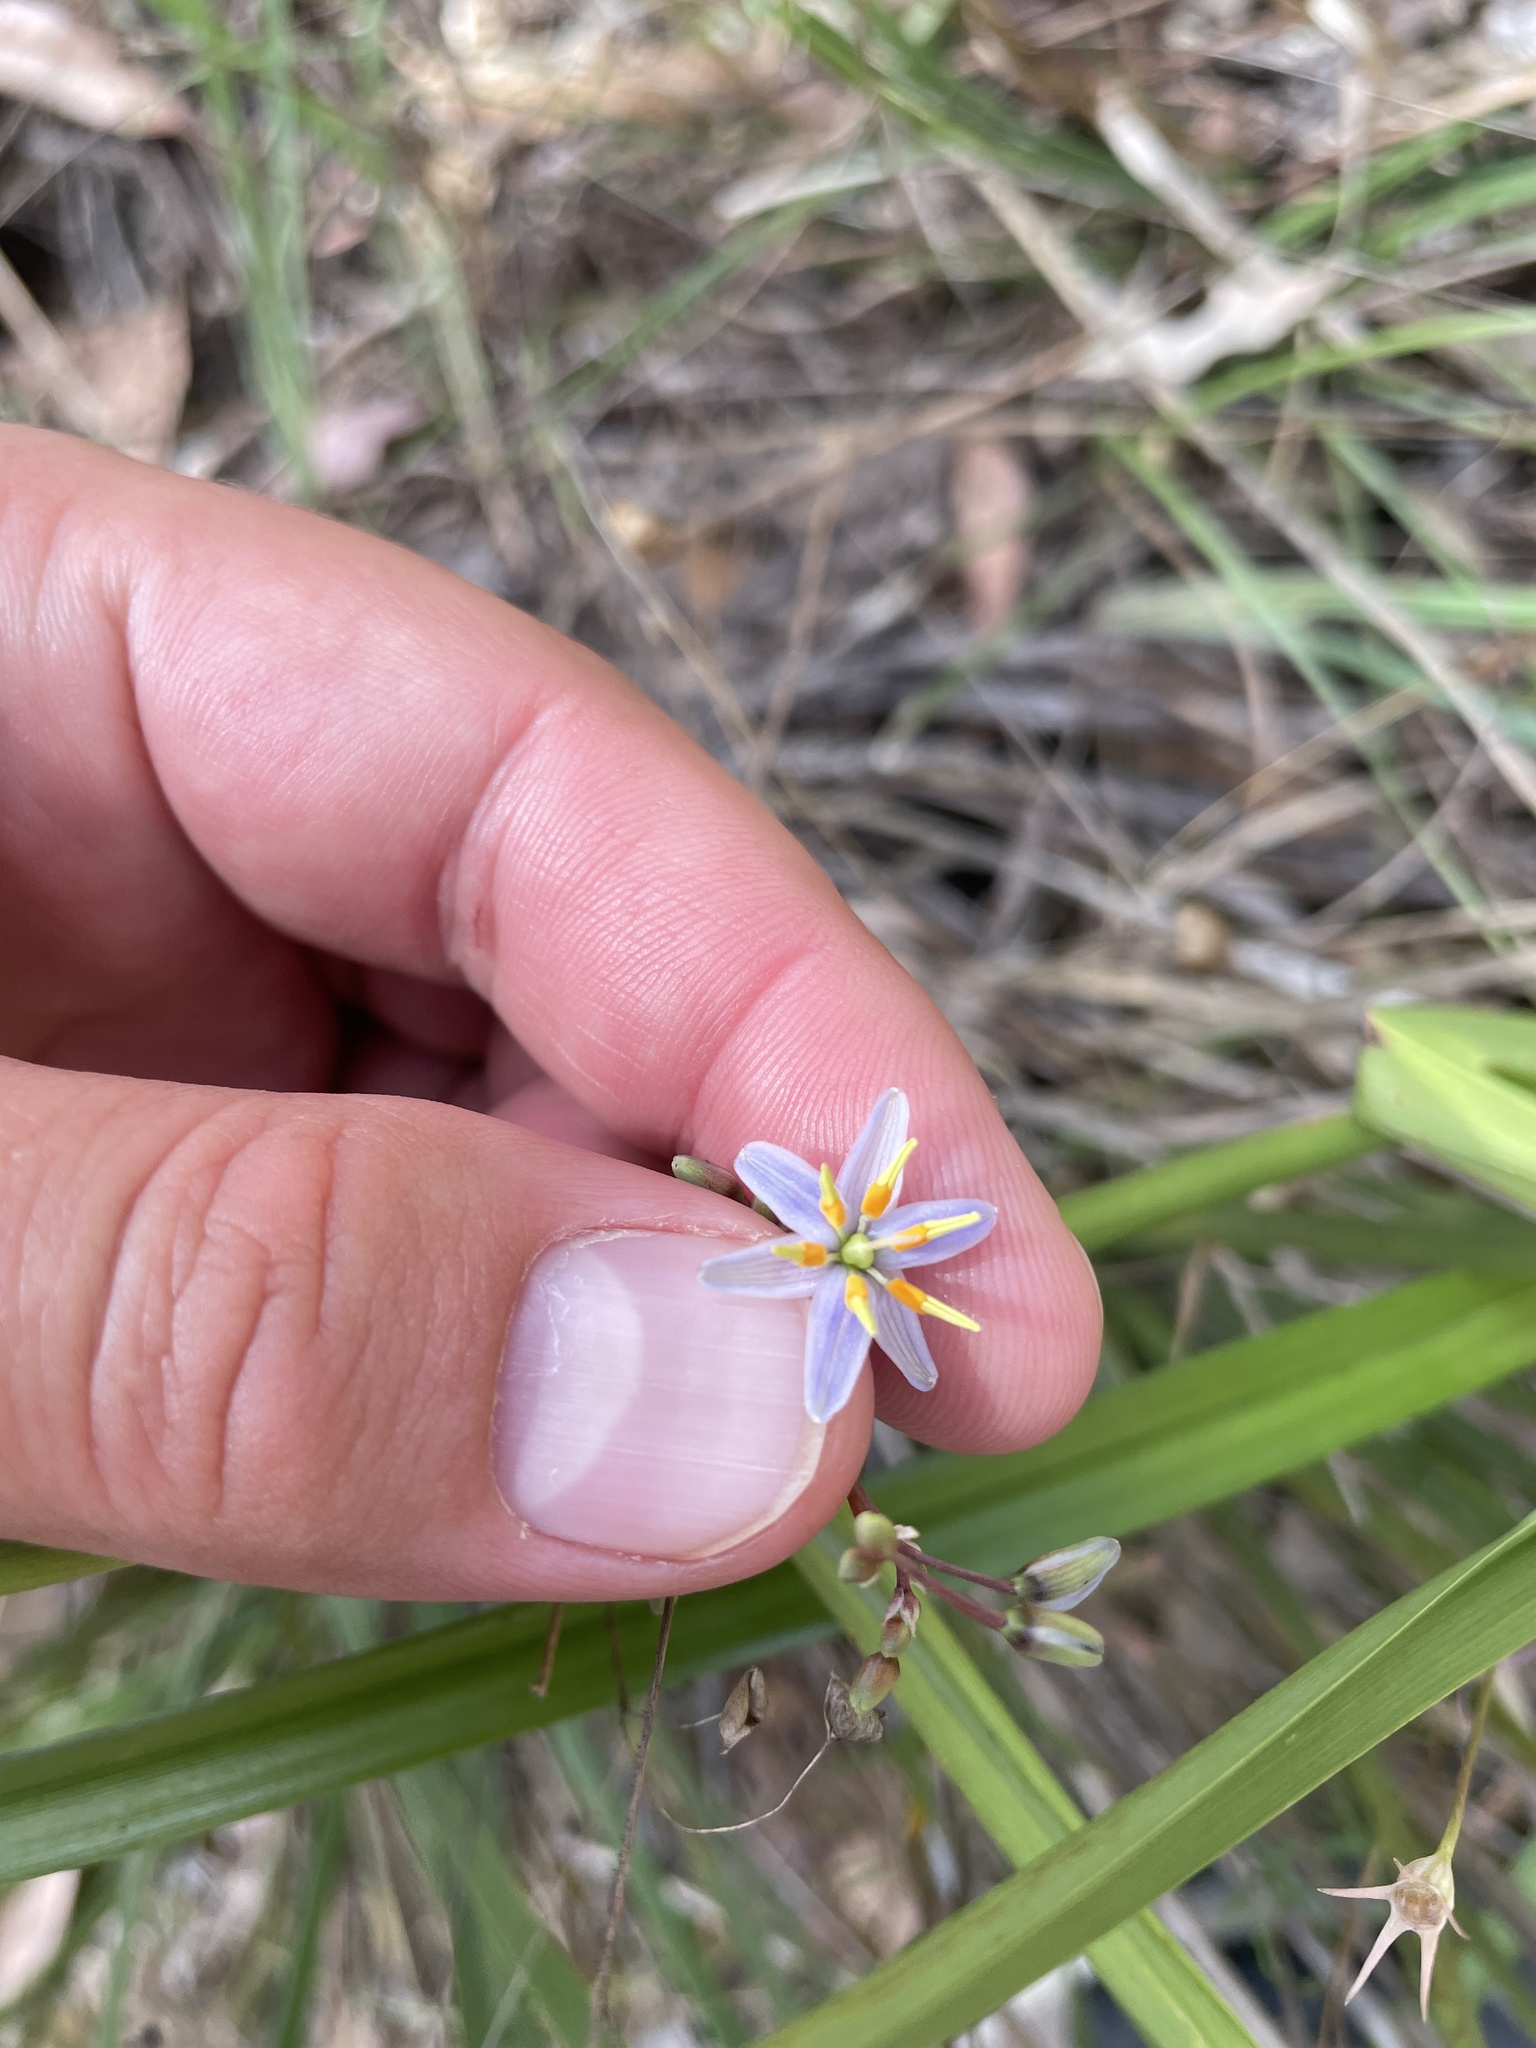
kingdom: Plantae
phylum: Tracheophyta
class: Liliopsida
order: Asparagales
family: Asphodelaceae
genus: Dianella
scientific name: Dianella longifolia
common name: Blue flax-lily
